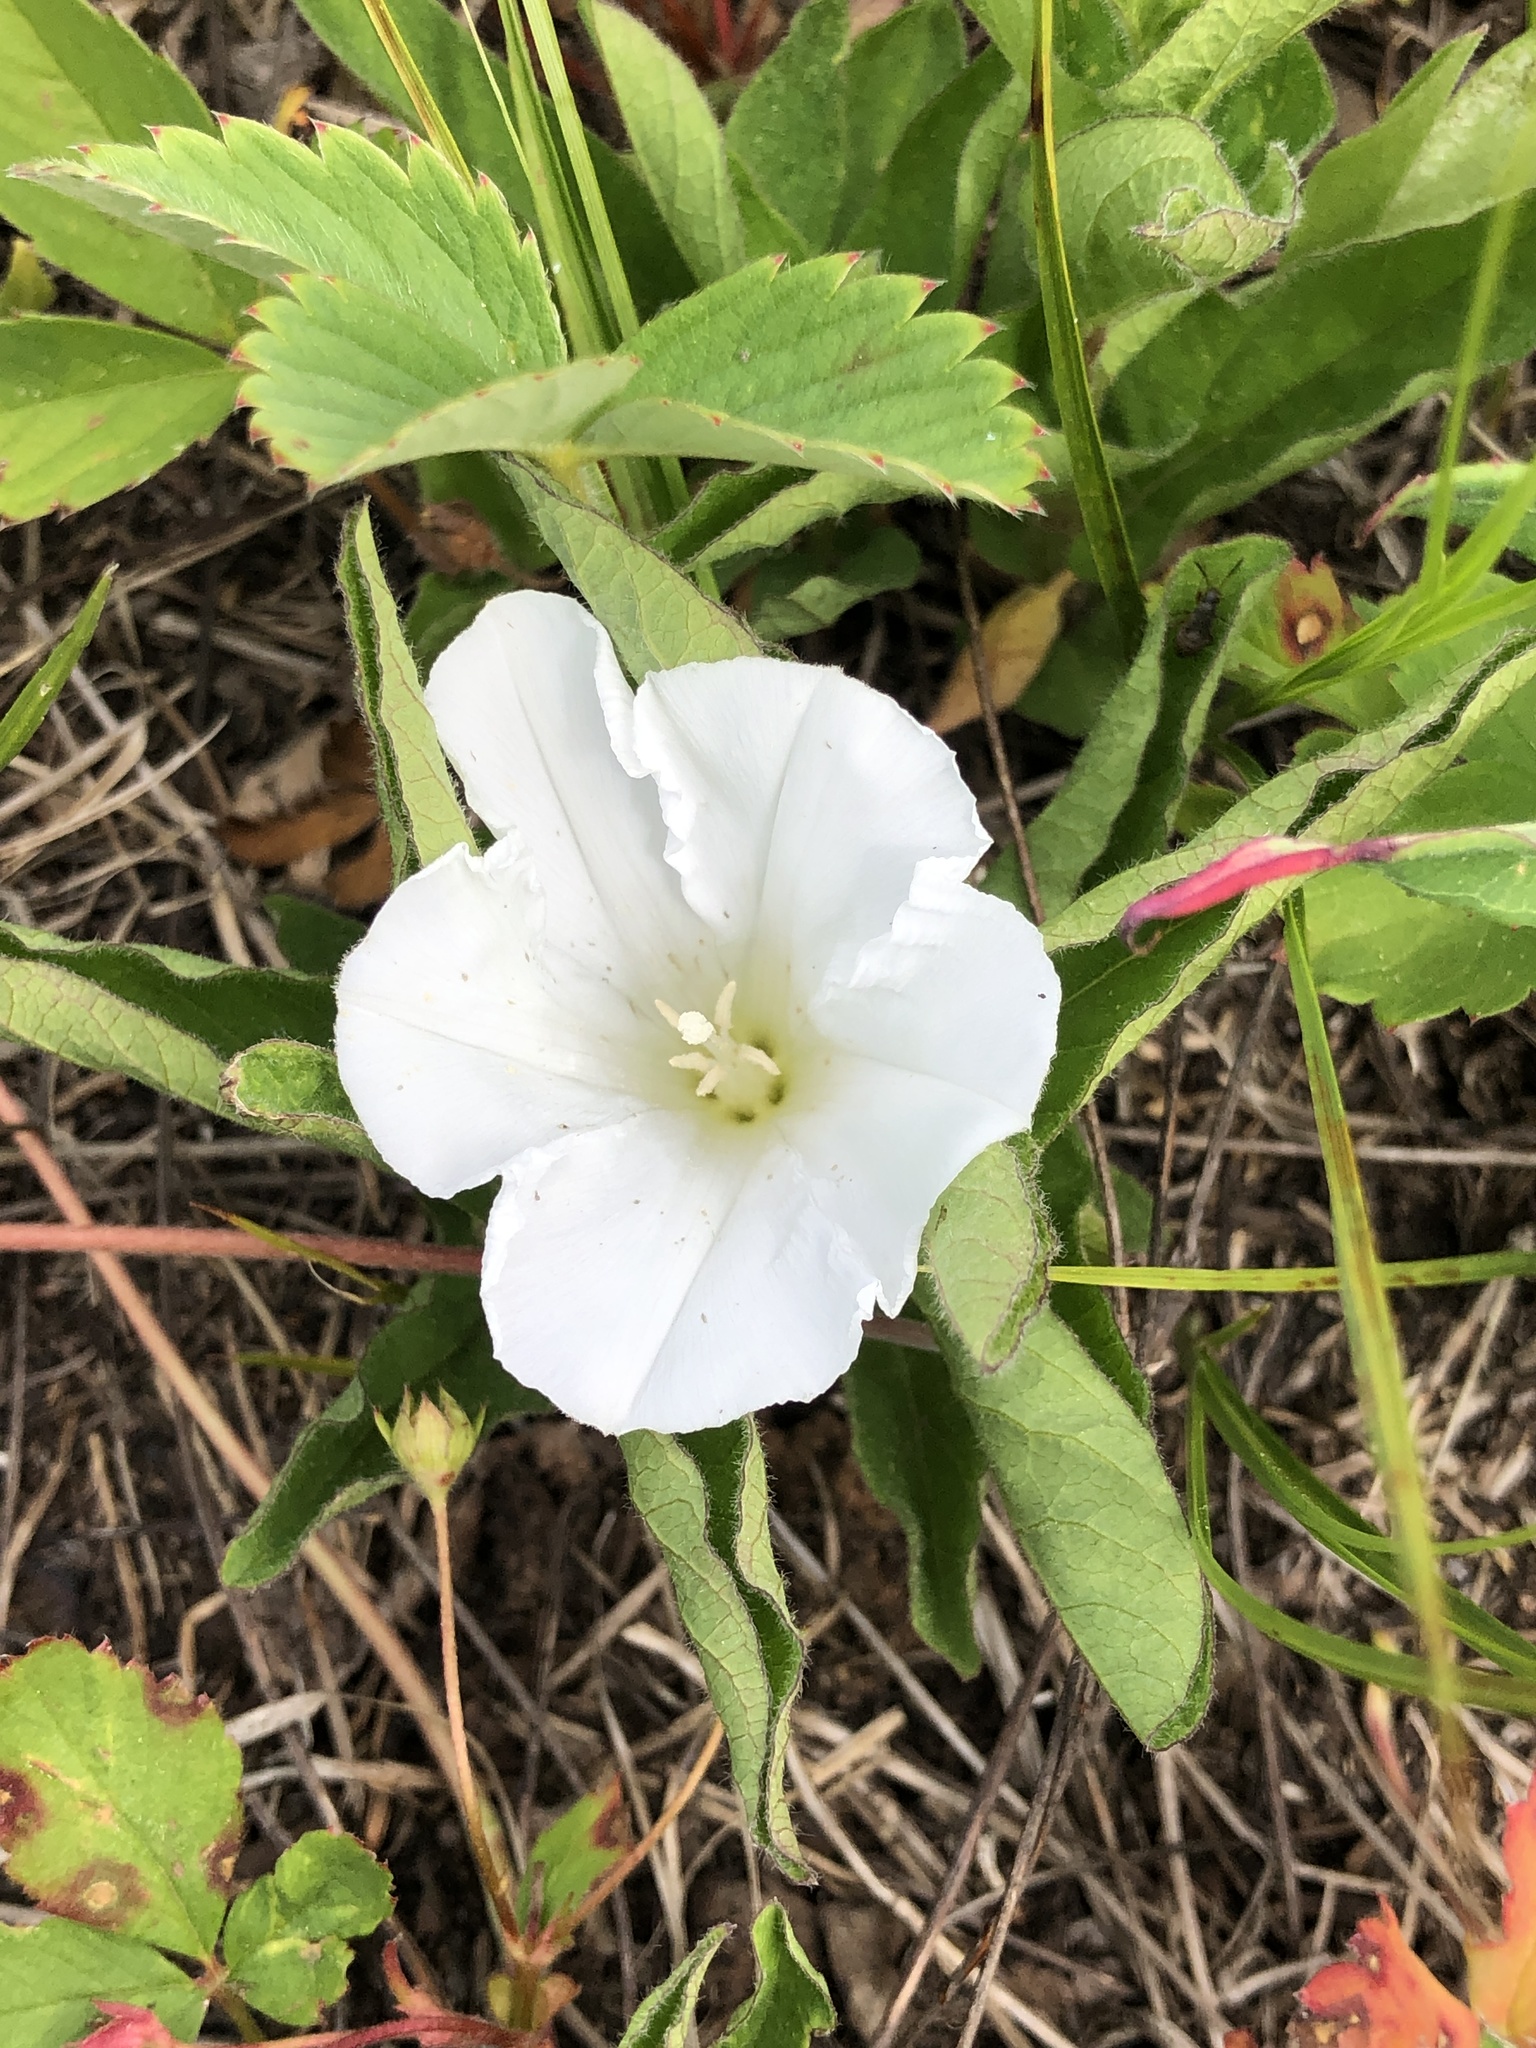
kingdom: Plantae
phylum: Tracheophyta
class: Magnoliopsida
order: Solanales
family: Convolvulaceae
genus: Calystegia
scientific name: Calystegia spithamaea
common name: Dwarf bindweed
